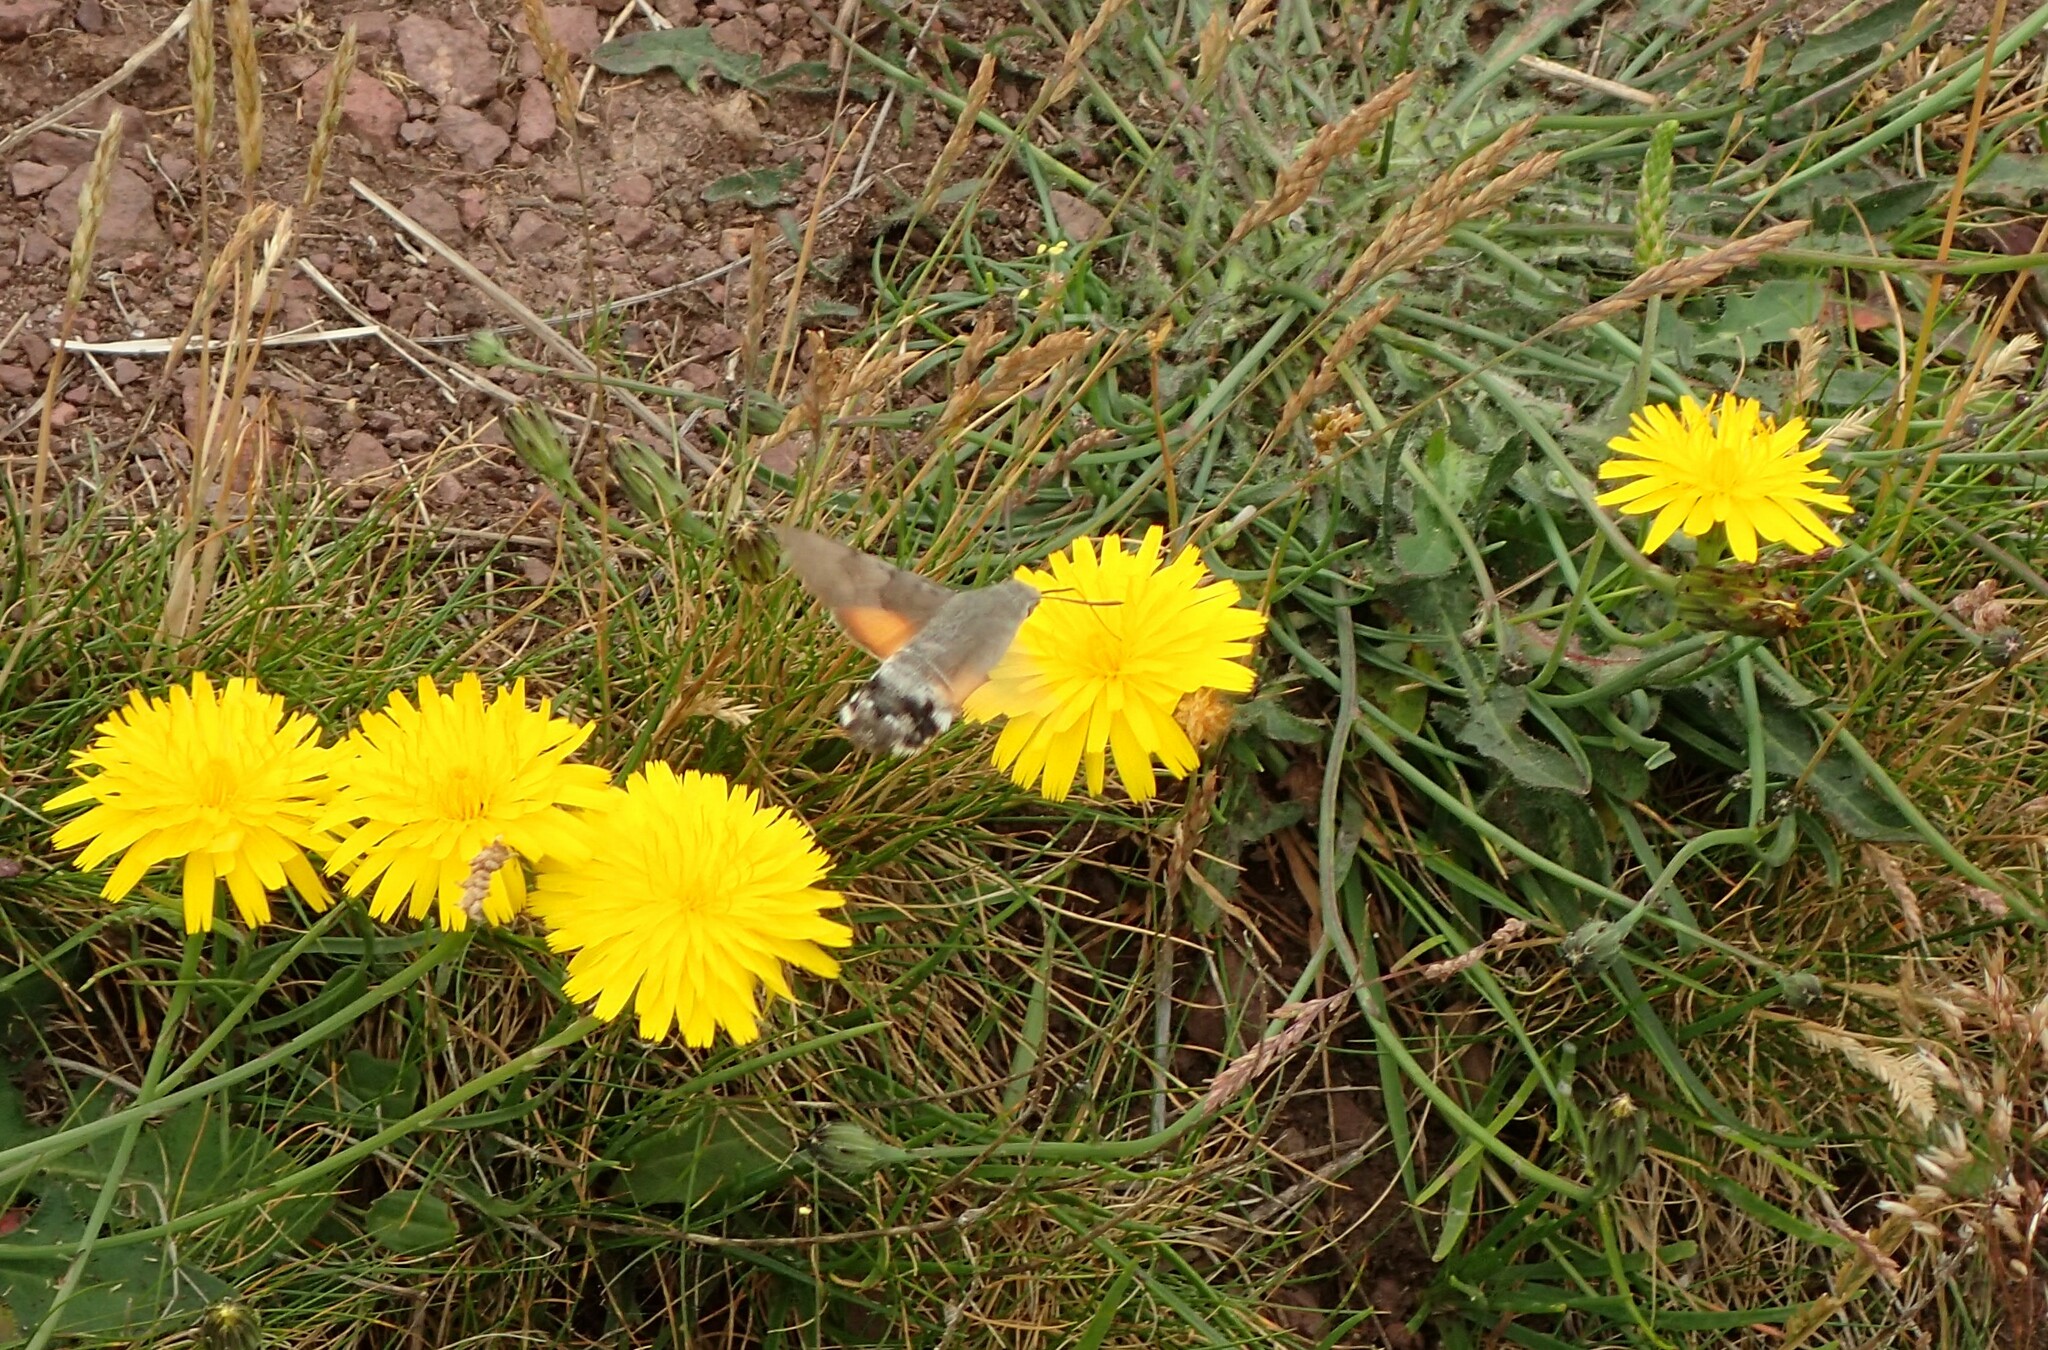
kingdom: Animalia
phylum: Arthropoda
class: Insecta
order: Lepidoptera
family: Sphingidae
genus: Macroglossum
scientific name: Macroglossum stellatarum
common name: Humming-bird hawk-moth
